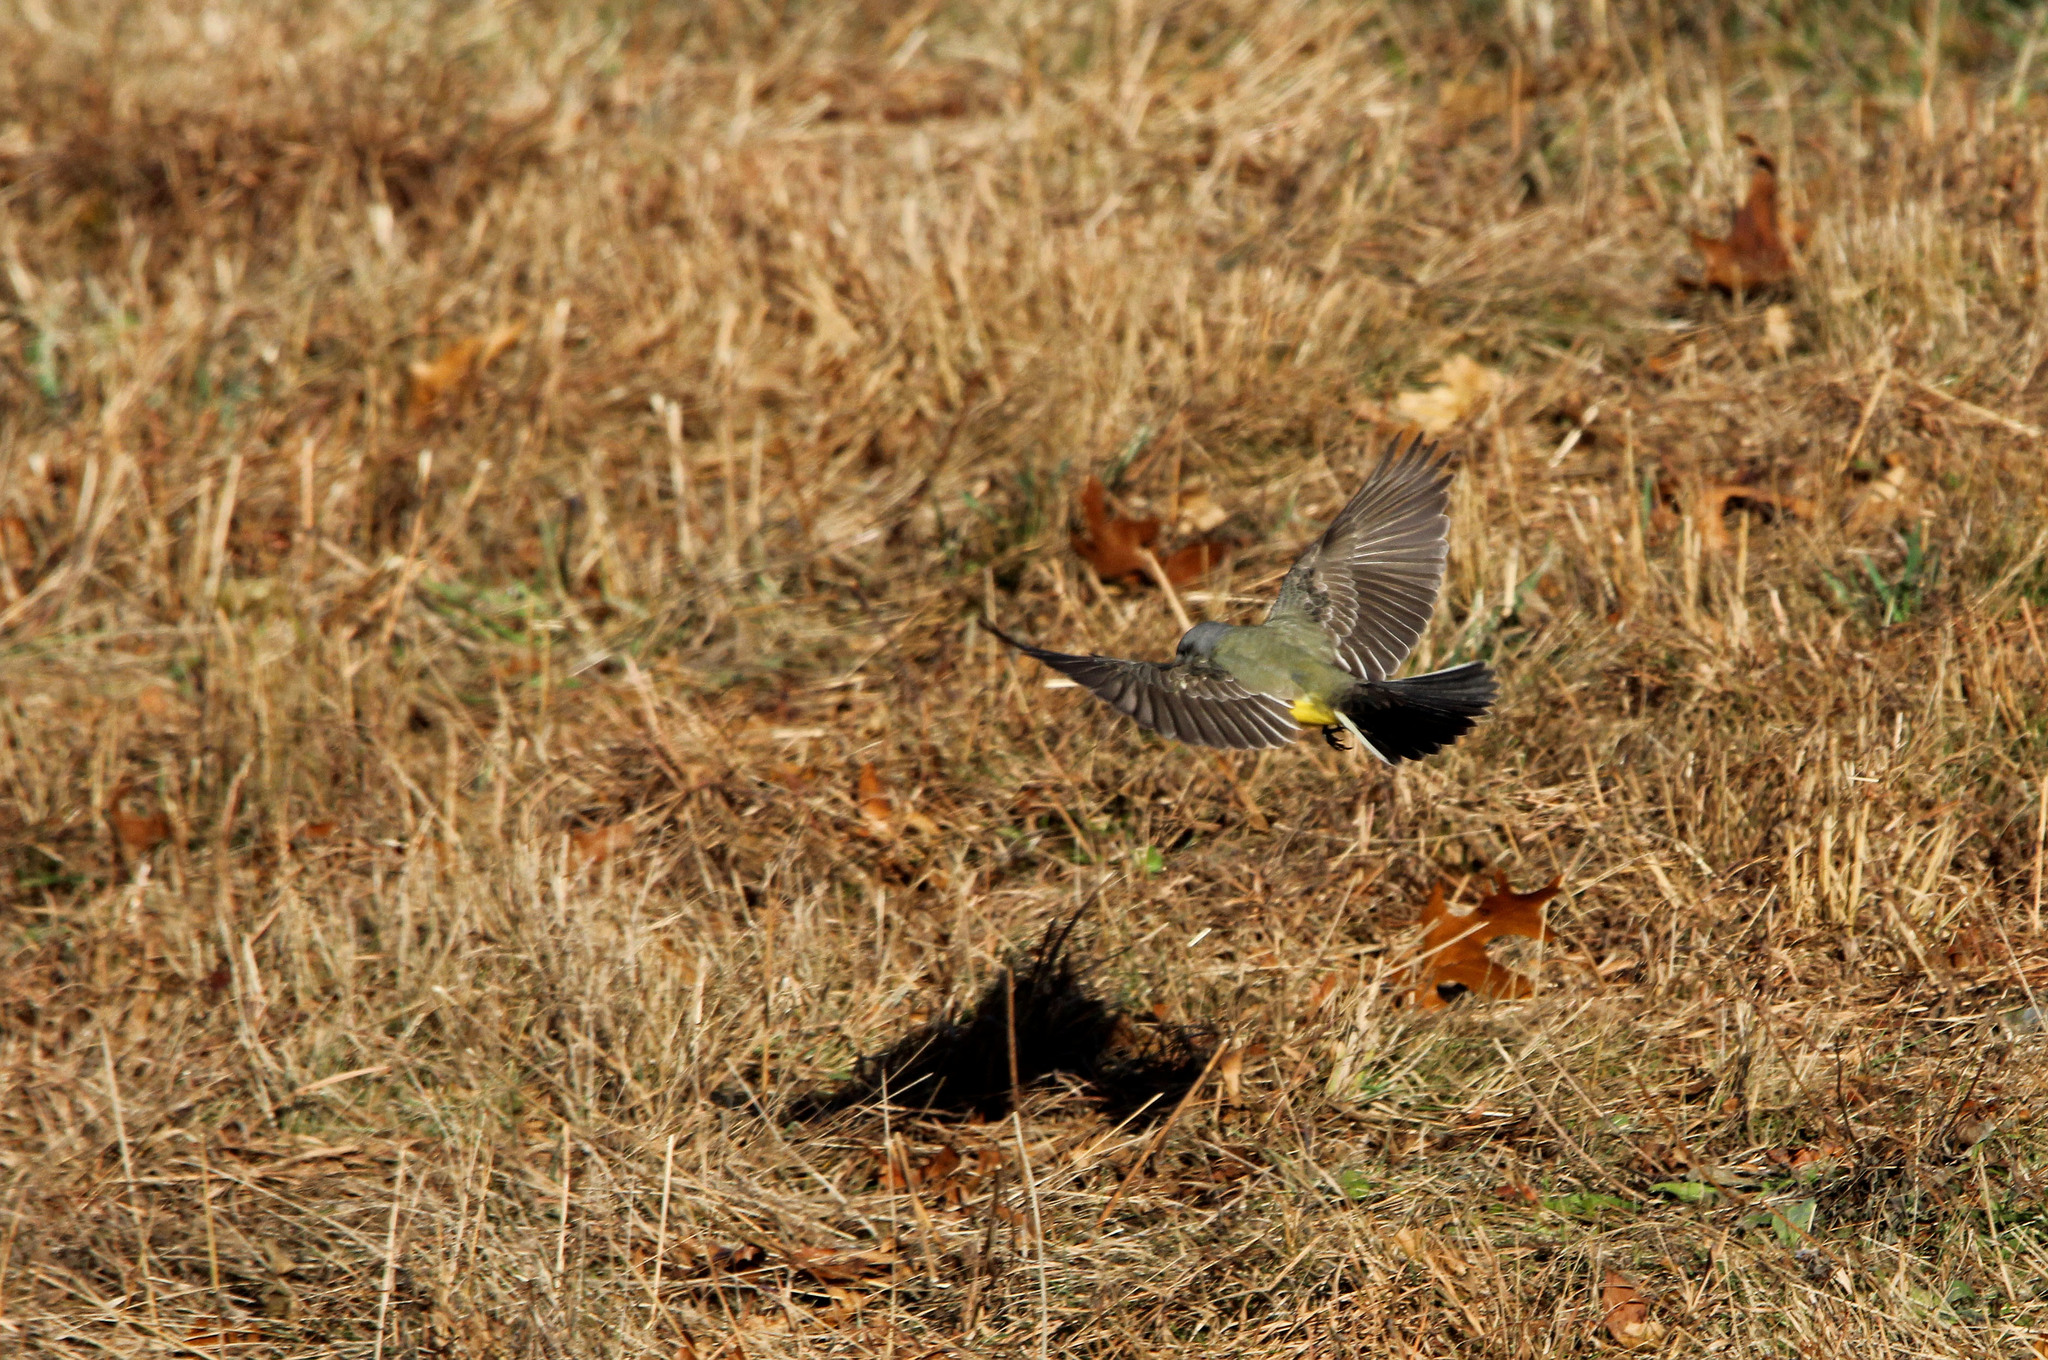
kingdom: Animalia
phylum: Chordata
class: Aves
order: Passeriformes
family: Tyrannidae
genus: Tyrannus
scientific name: Tyrannus verticalis
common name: Western kingbird
